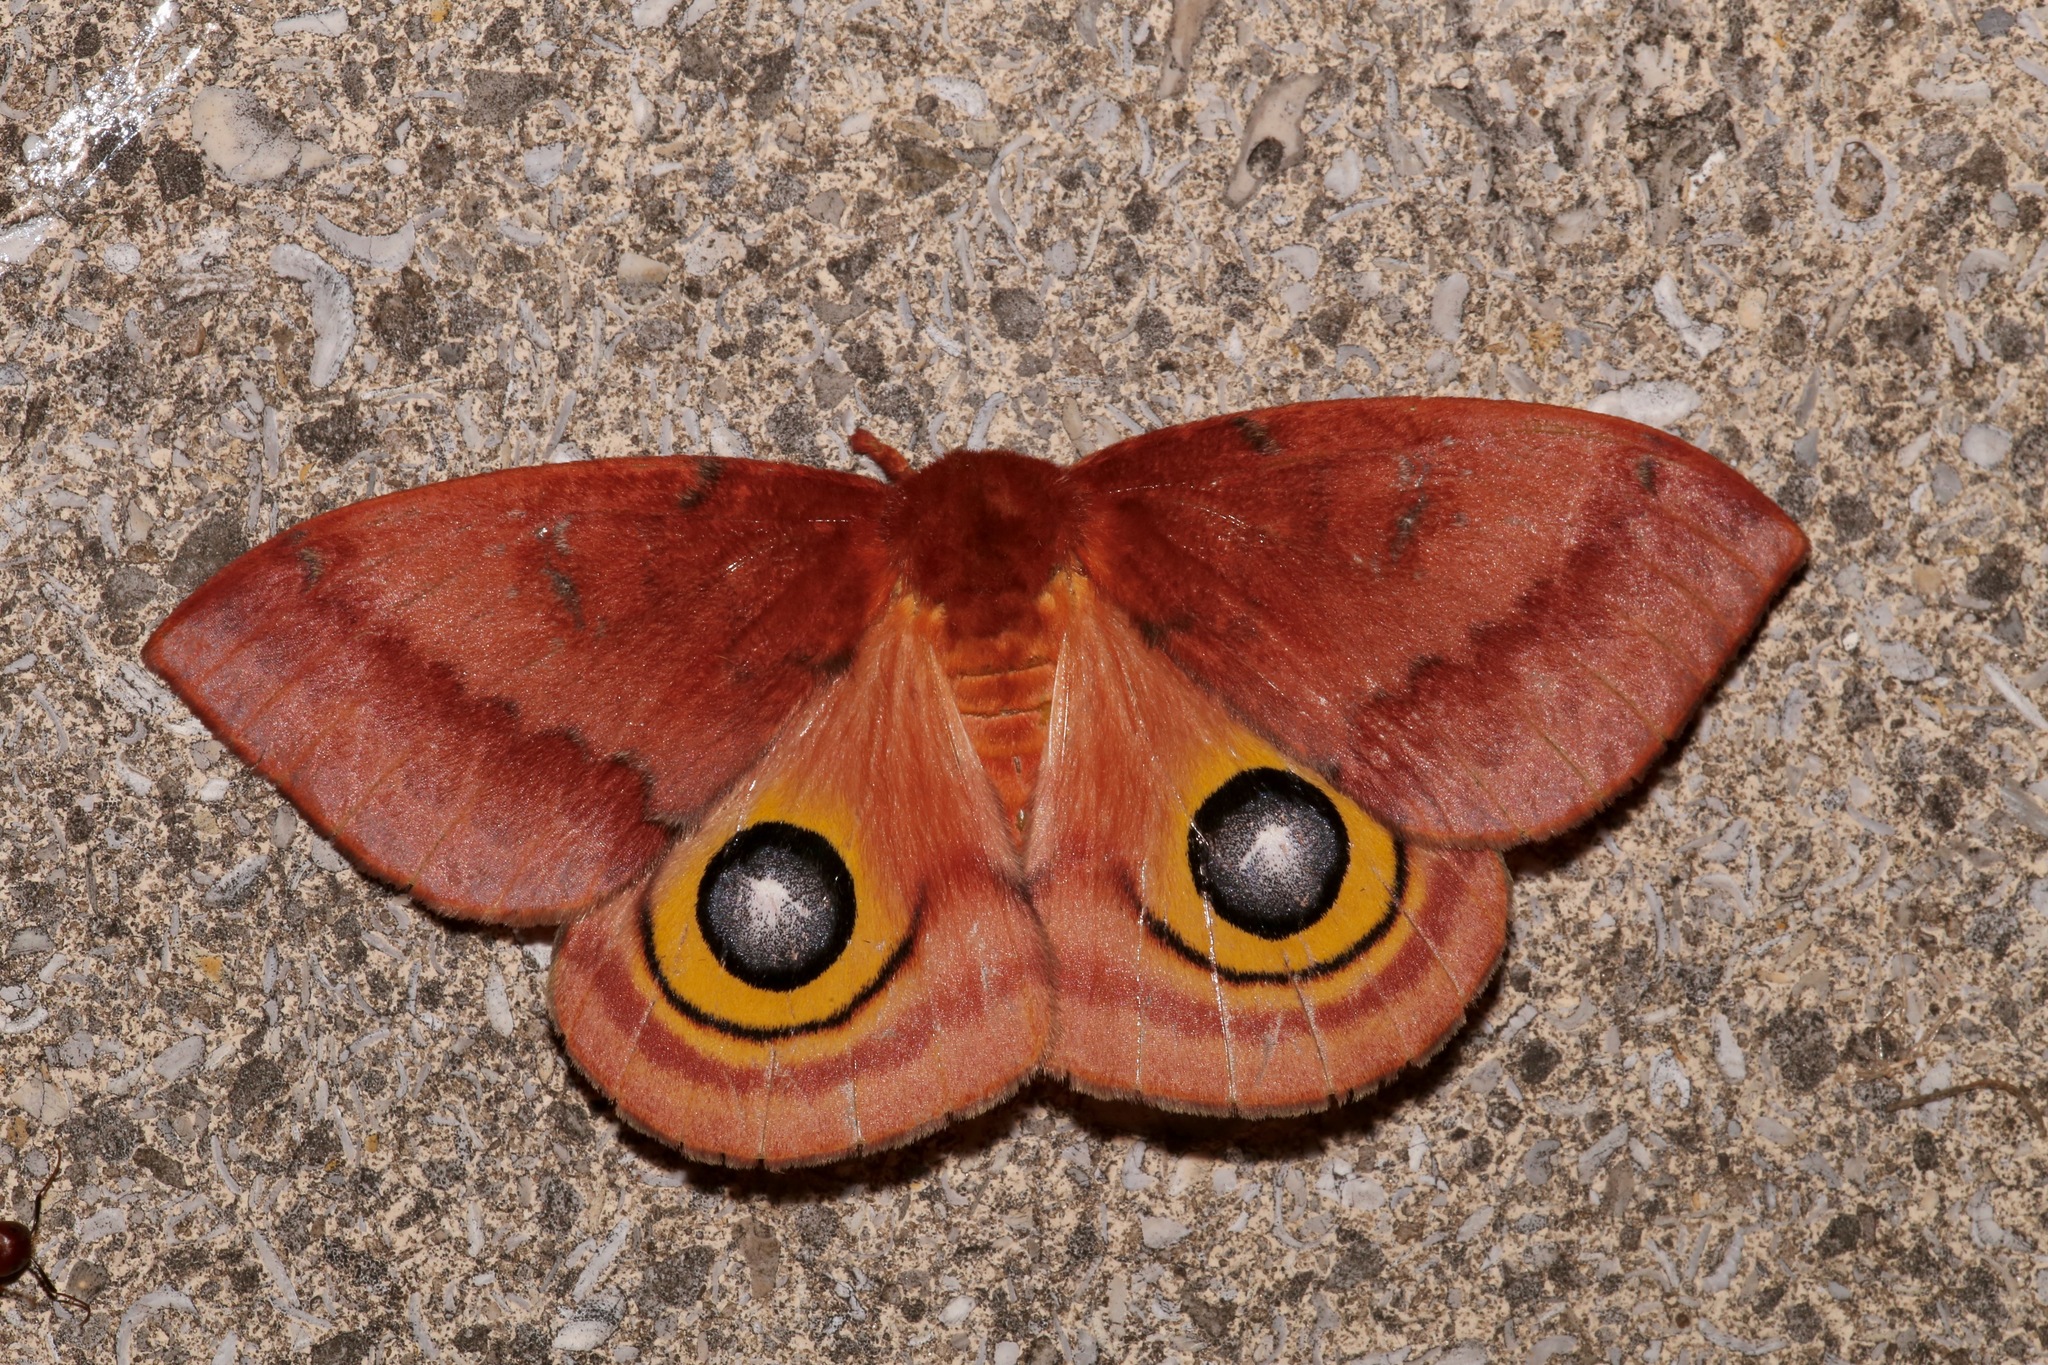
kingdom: Animalia
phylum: Arthropoda
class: Insecta
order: Lepidoptera
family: Saturniidae
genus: Automeris
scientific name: Automeris io
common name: Io moth
